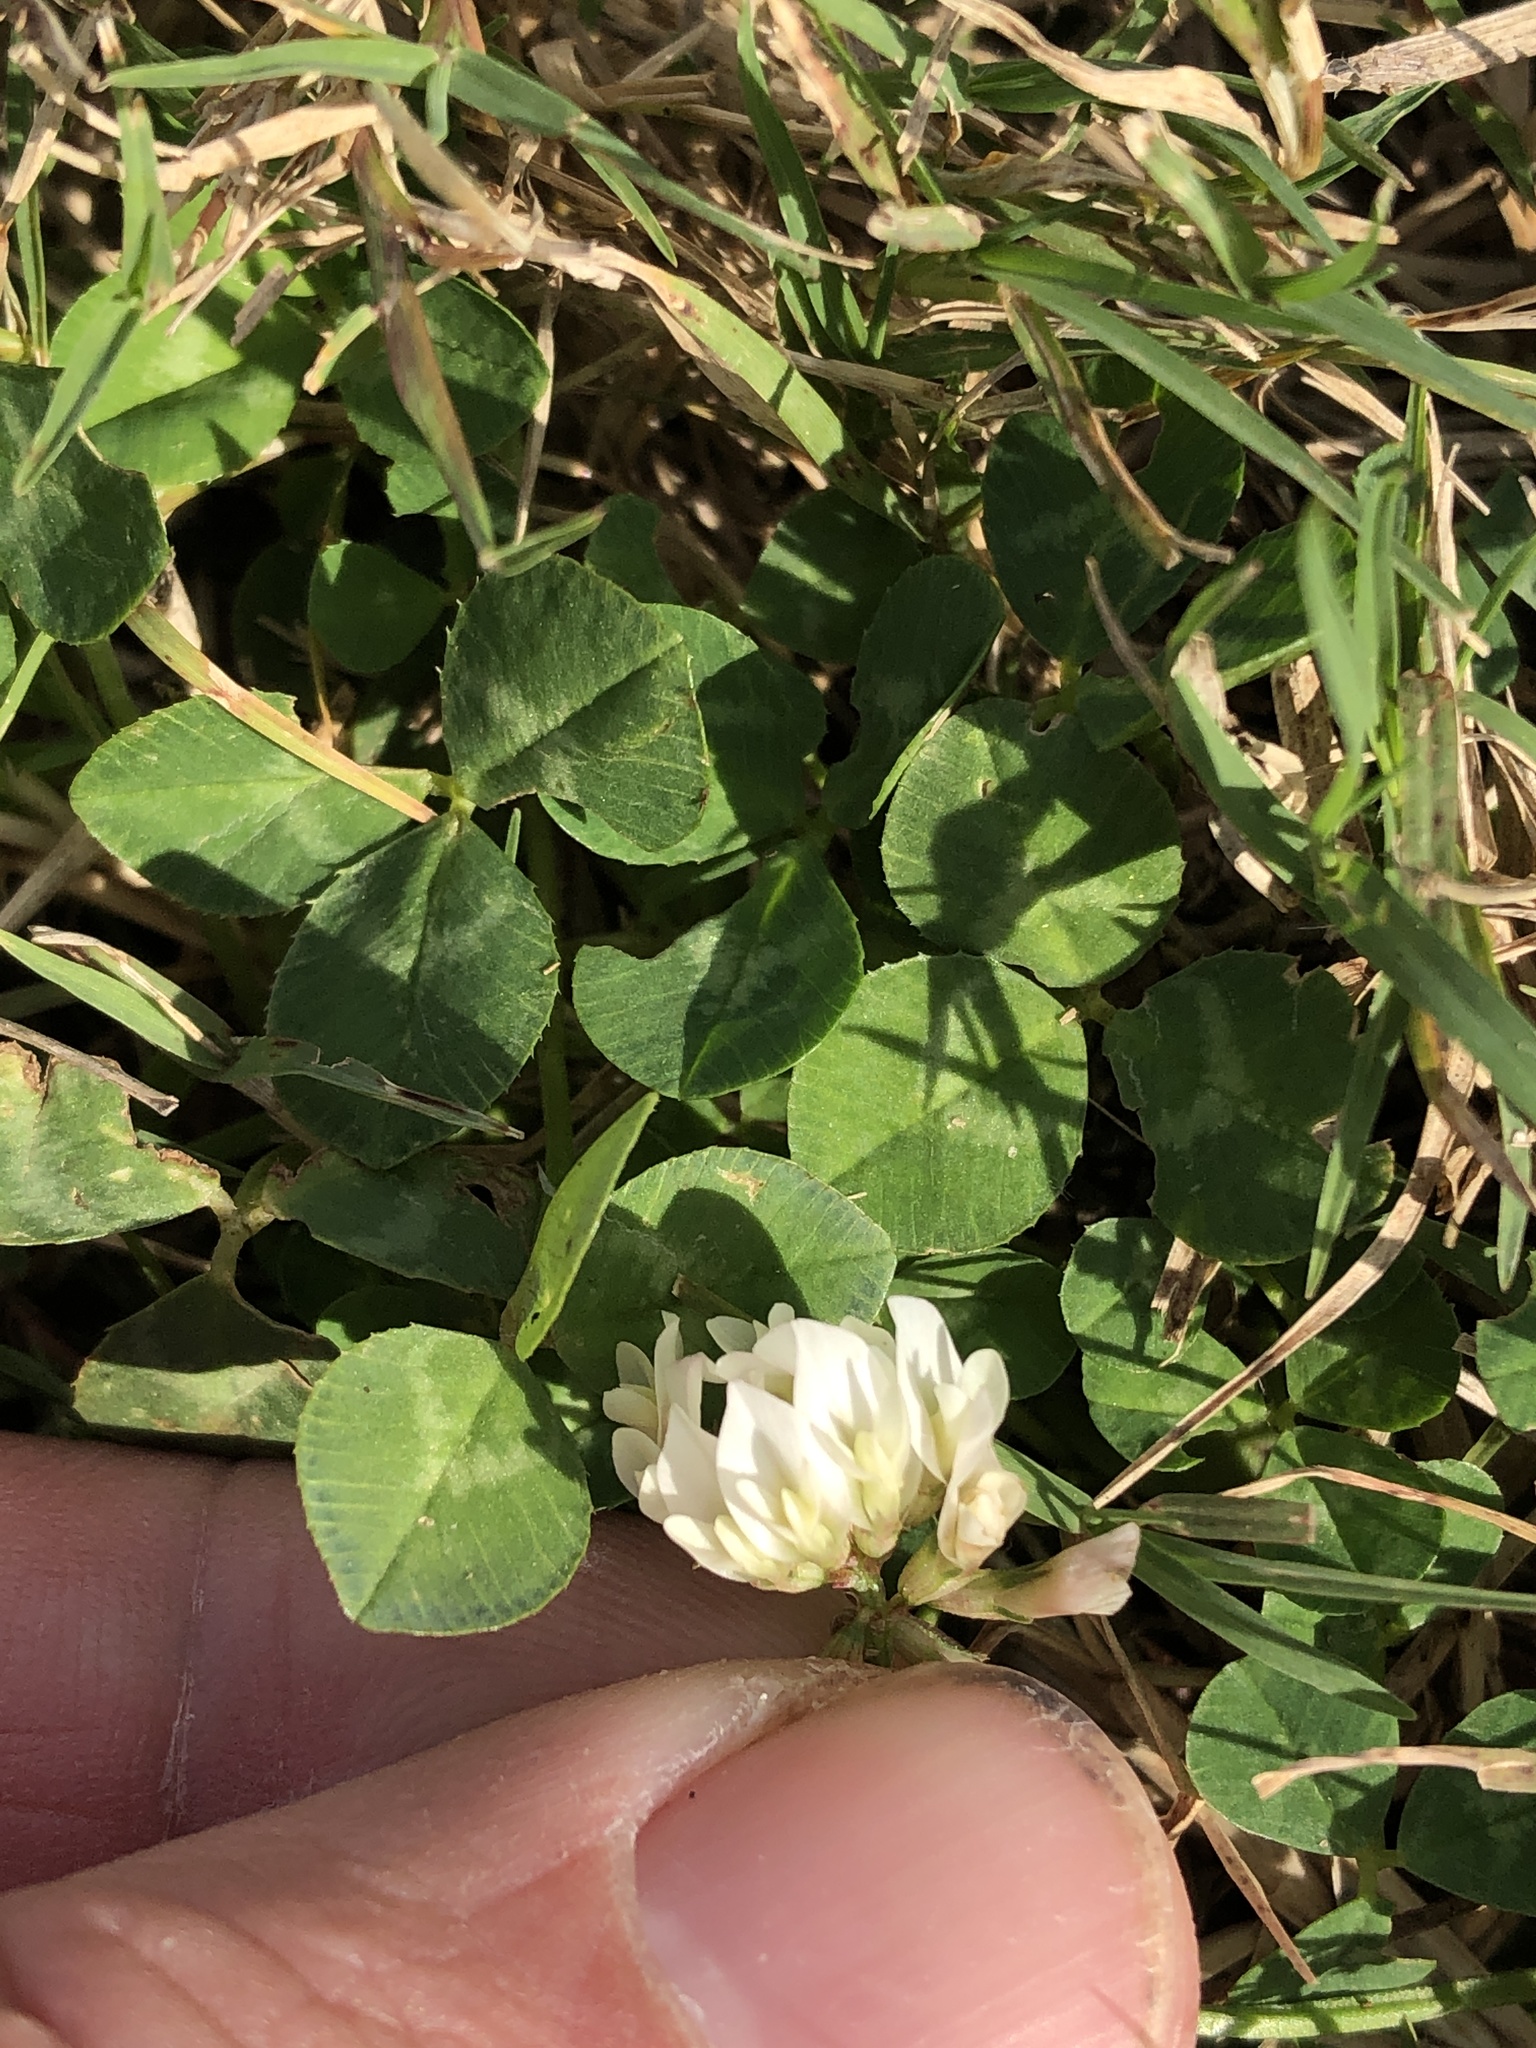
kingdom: Plantae
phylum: Tracheophyta
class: Magnoliopsida
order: Fabales
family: Fabaceae
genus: Trifolium
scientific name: Trifolium repens
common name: White clover
